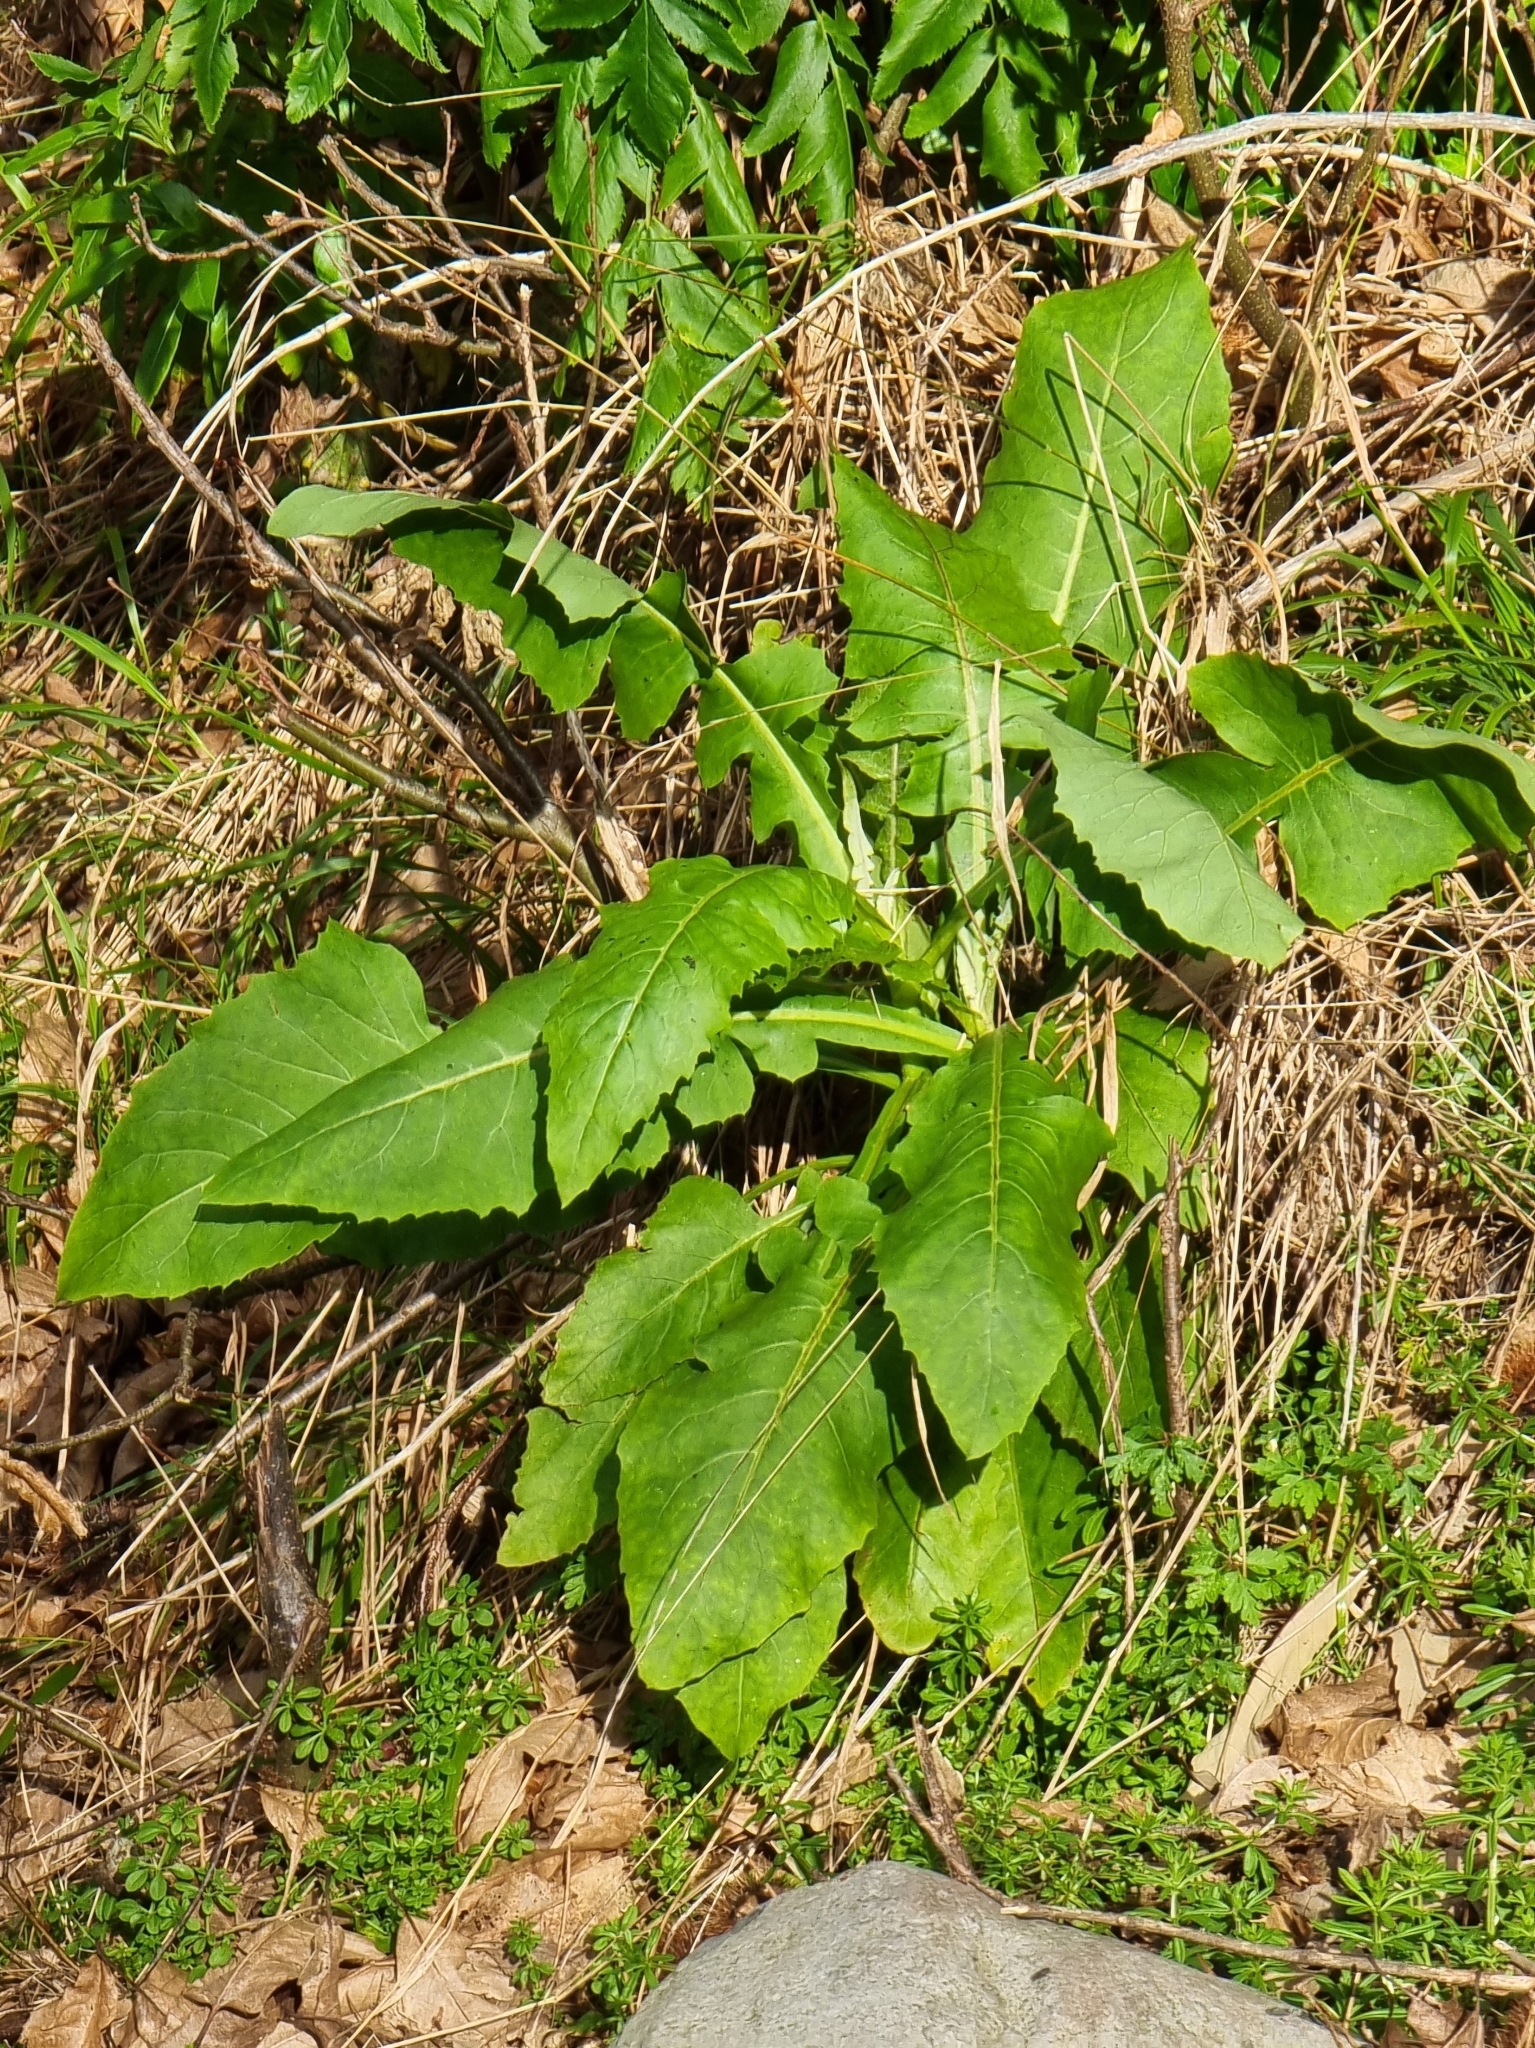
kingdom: Plantae
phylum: Tracheophyta
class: Magnoliopsida
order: Asterales
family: Asteraceae
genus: Sonchus
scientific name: Sonchus fruticosus
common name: Shrubby sow-thistle
